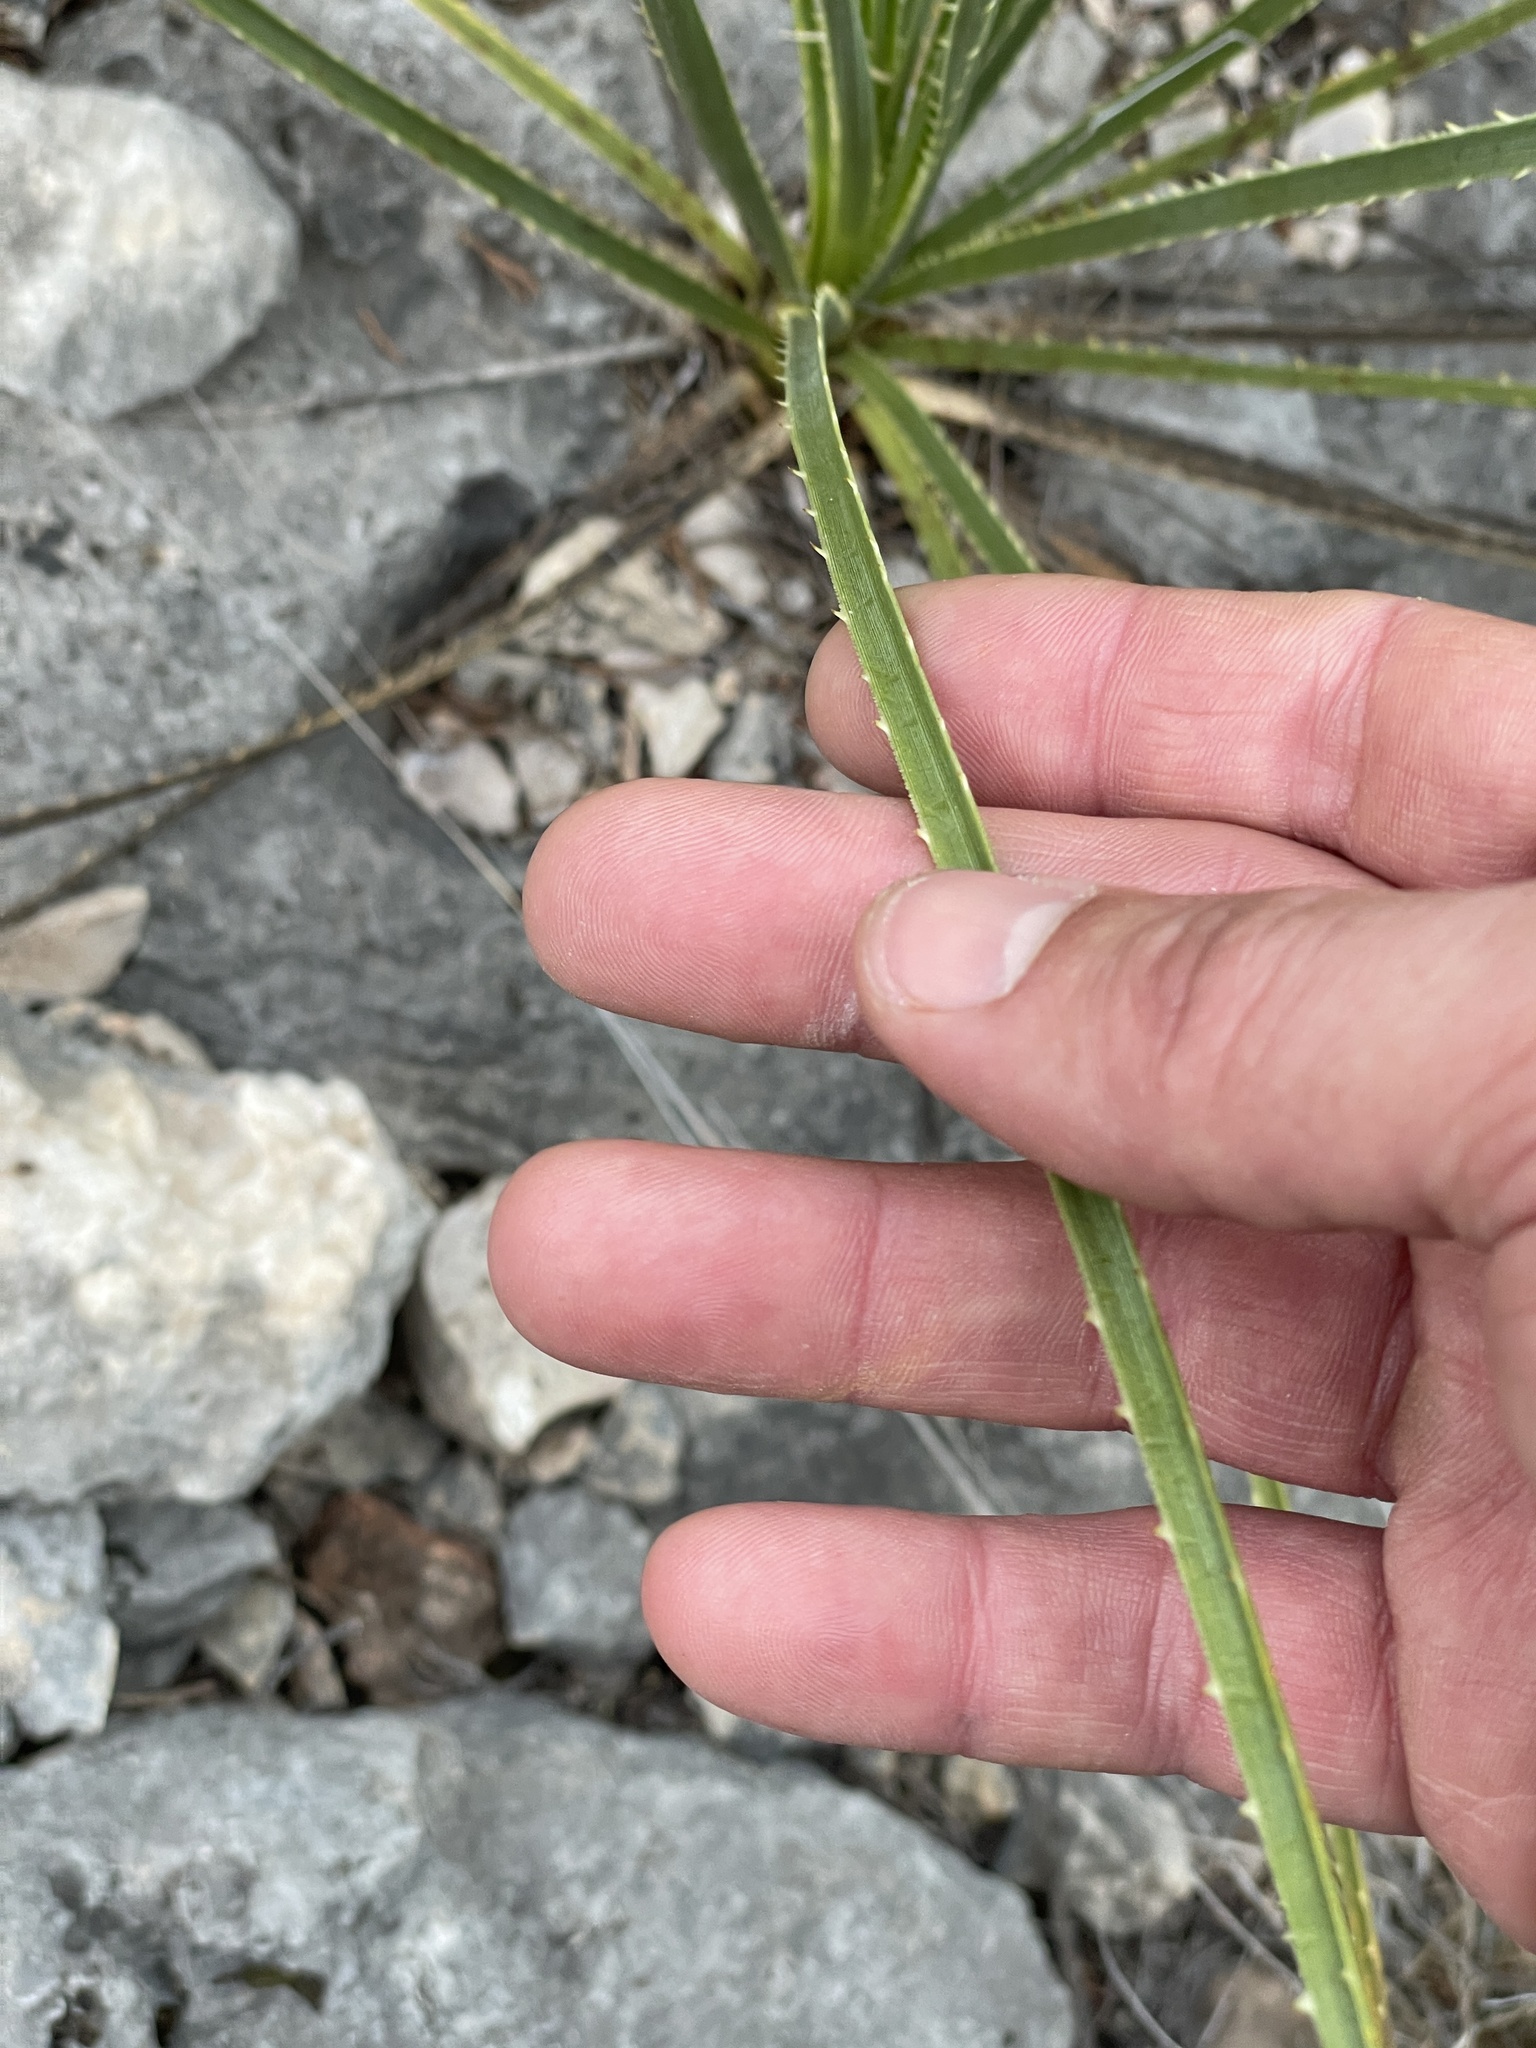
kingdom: Plantae
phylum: Tracheophyta
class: Liliopsida
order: Asparagales
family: Asparagaceae
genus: Dasylirion
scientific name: Dasylirion texanum
